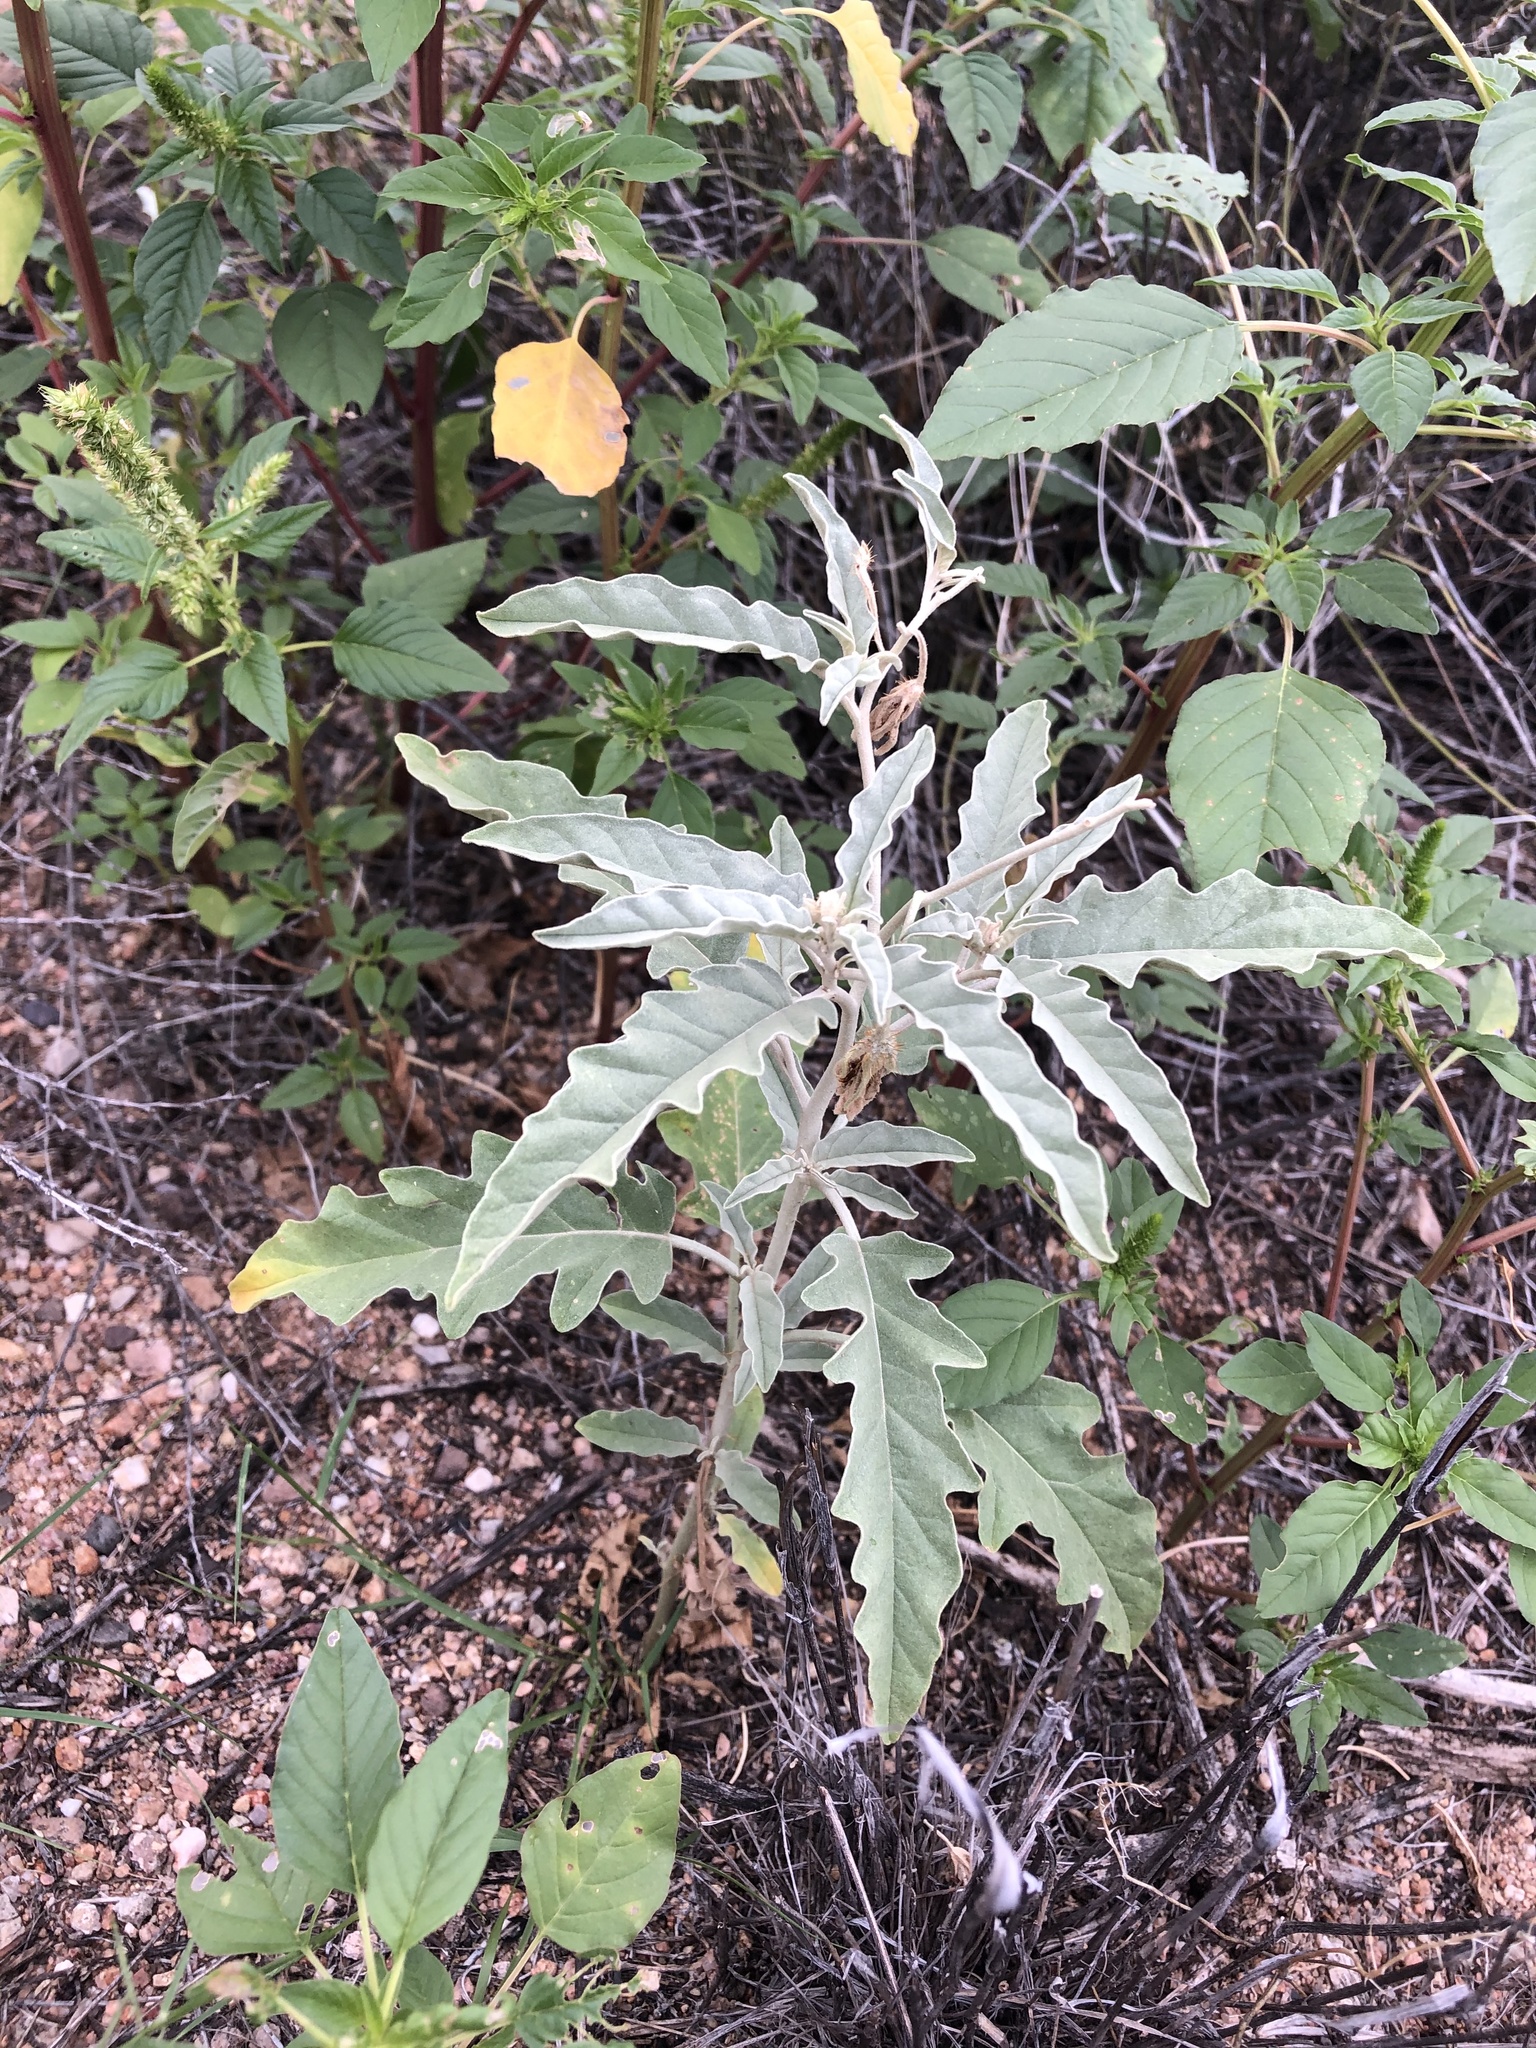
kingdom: Plantae
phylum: Tracheophyta
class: Magnoliopsida
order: Solanales
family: Solanaceae
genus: Solanum
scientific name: Solanum elaeagnifolium
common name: Silverleaf nightshade
